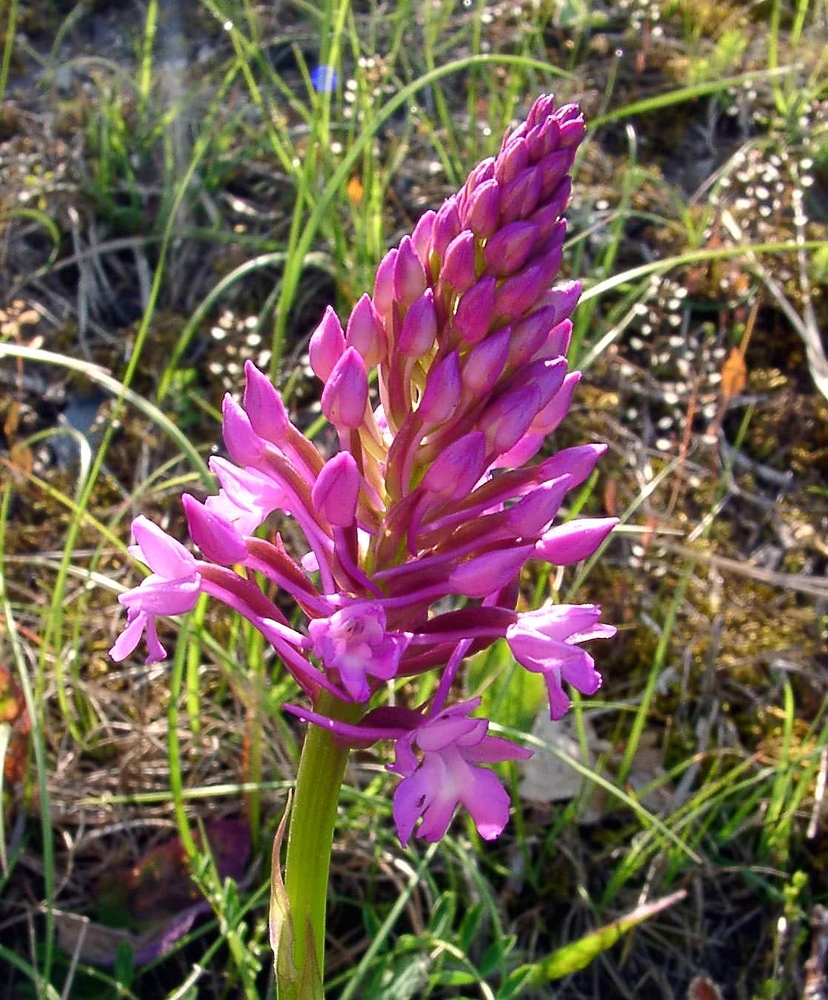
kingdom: Plantae
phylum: Tracheophyta
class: Liliopsida
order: Asparagales
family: Orchidaceae
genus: Anacamptis
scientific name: Anacamptis pyramidalis
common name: Pyramidal orchid
